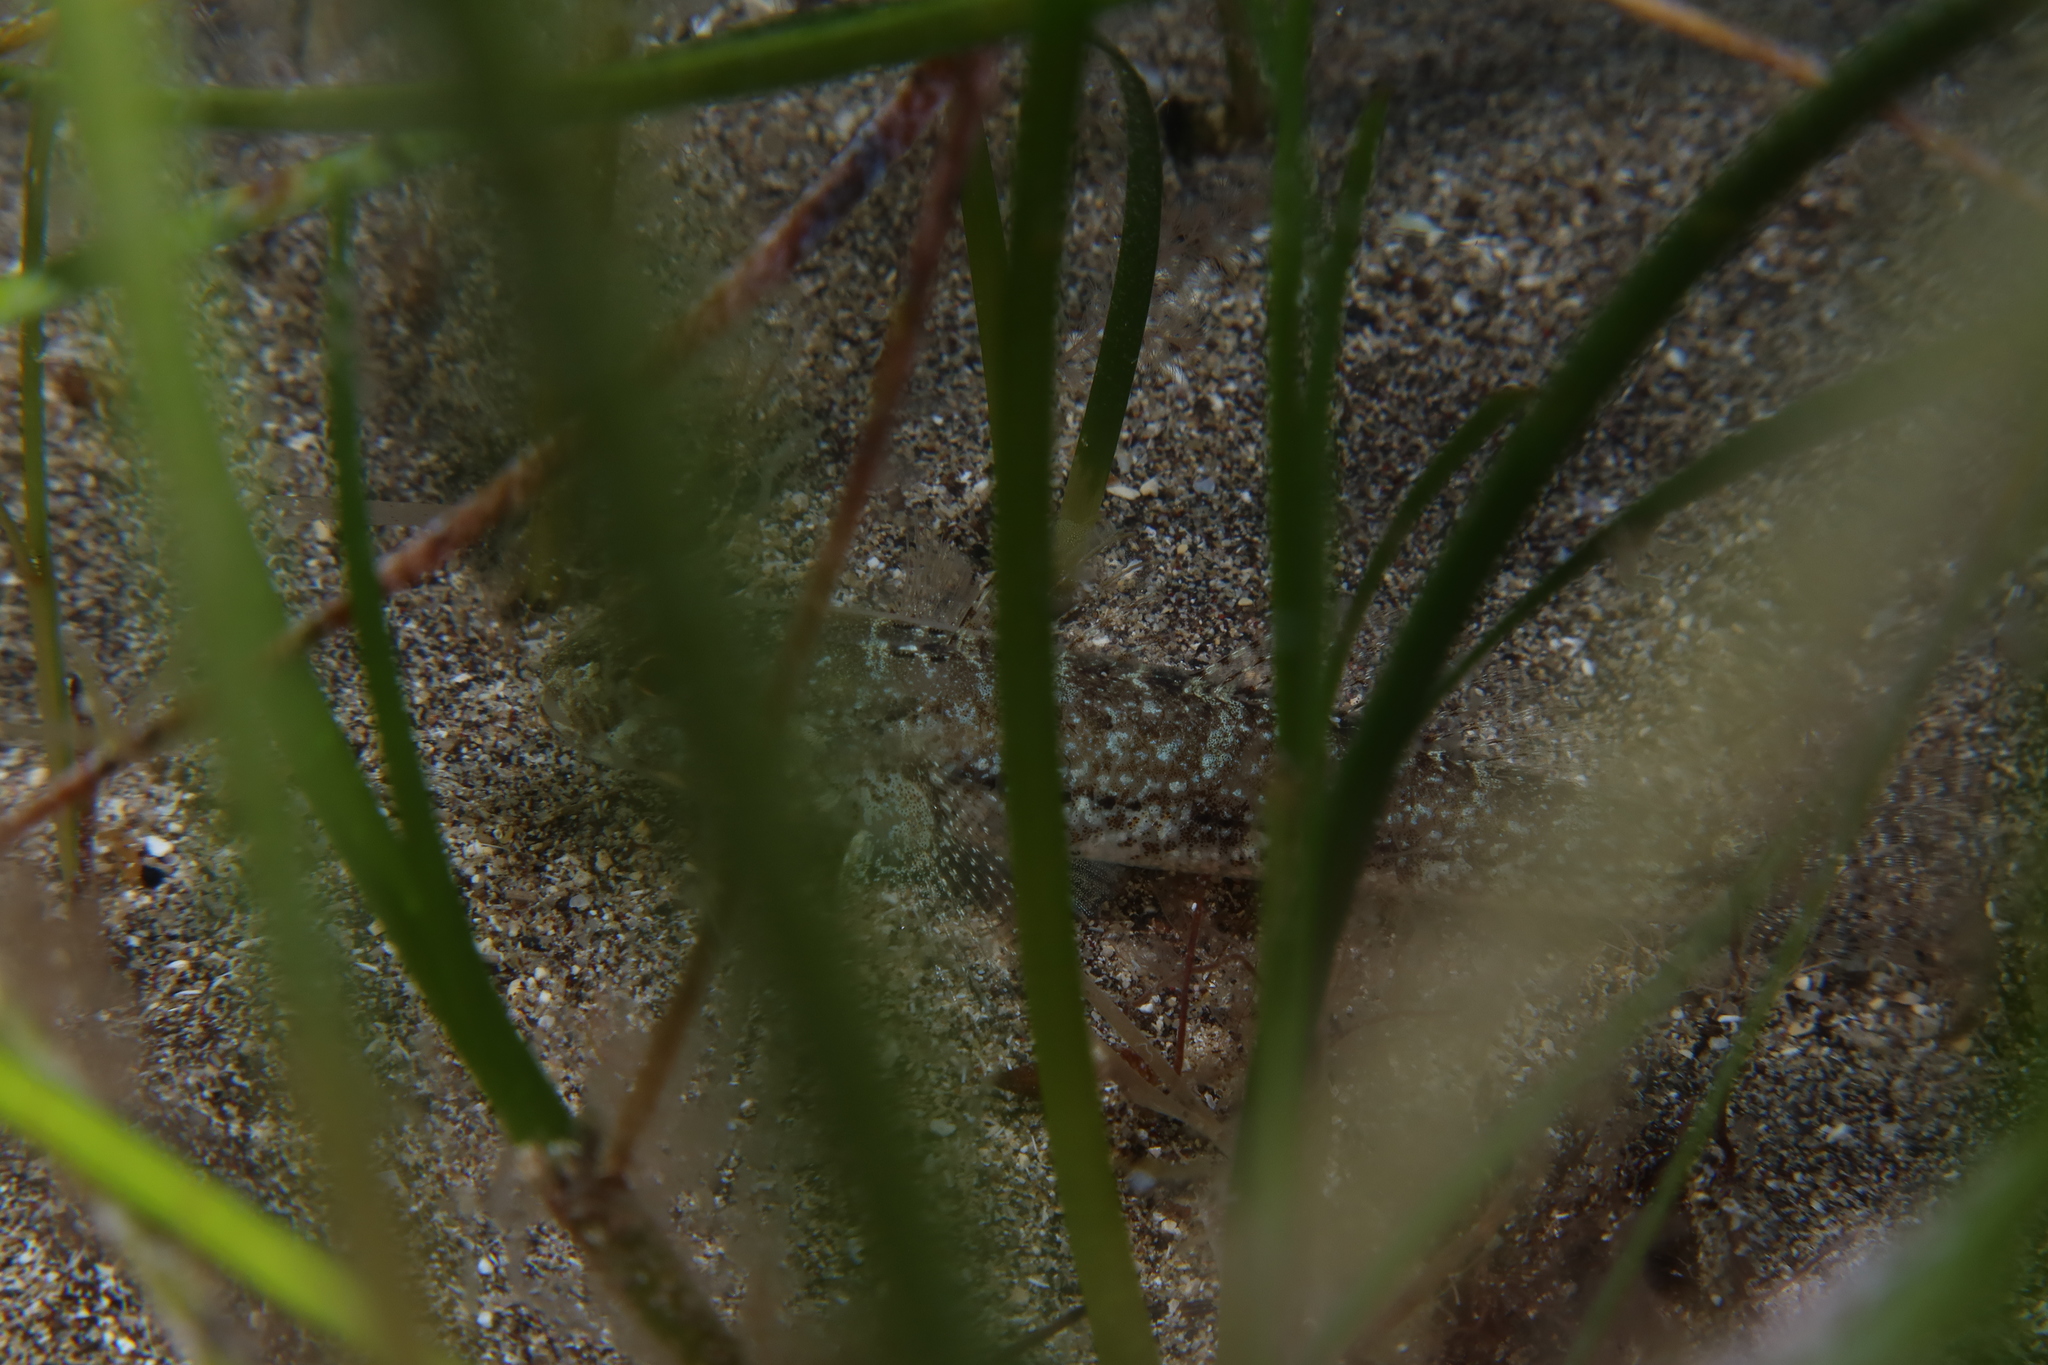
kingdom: Animalia
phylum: Chordata
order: Perciformes
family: Gobiidae
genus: Gobius
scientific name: Gobius niger
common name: Black goby
